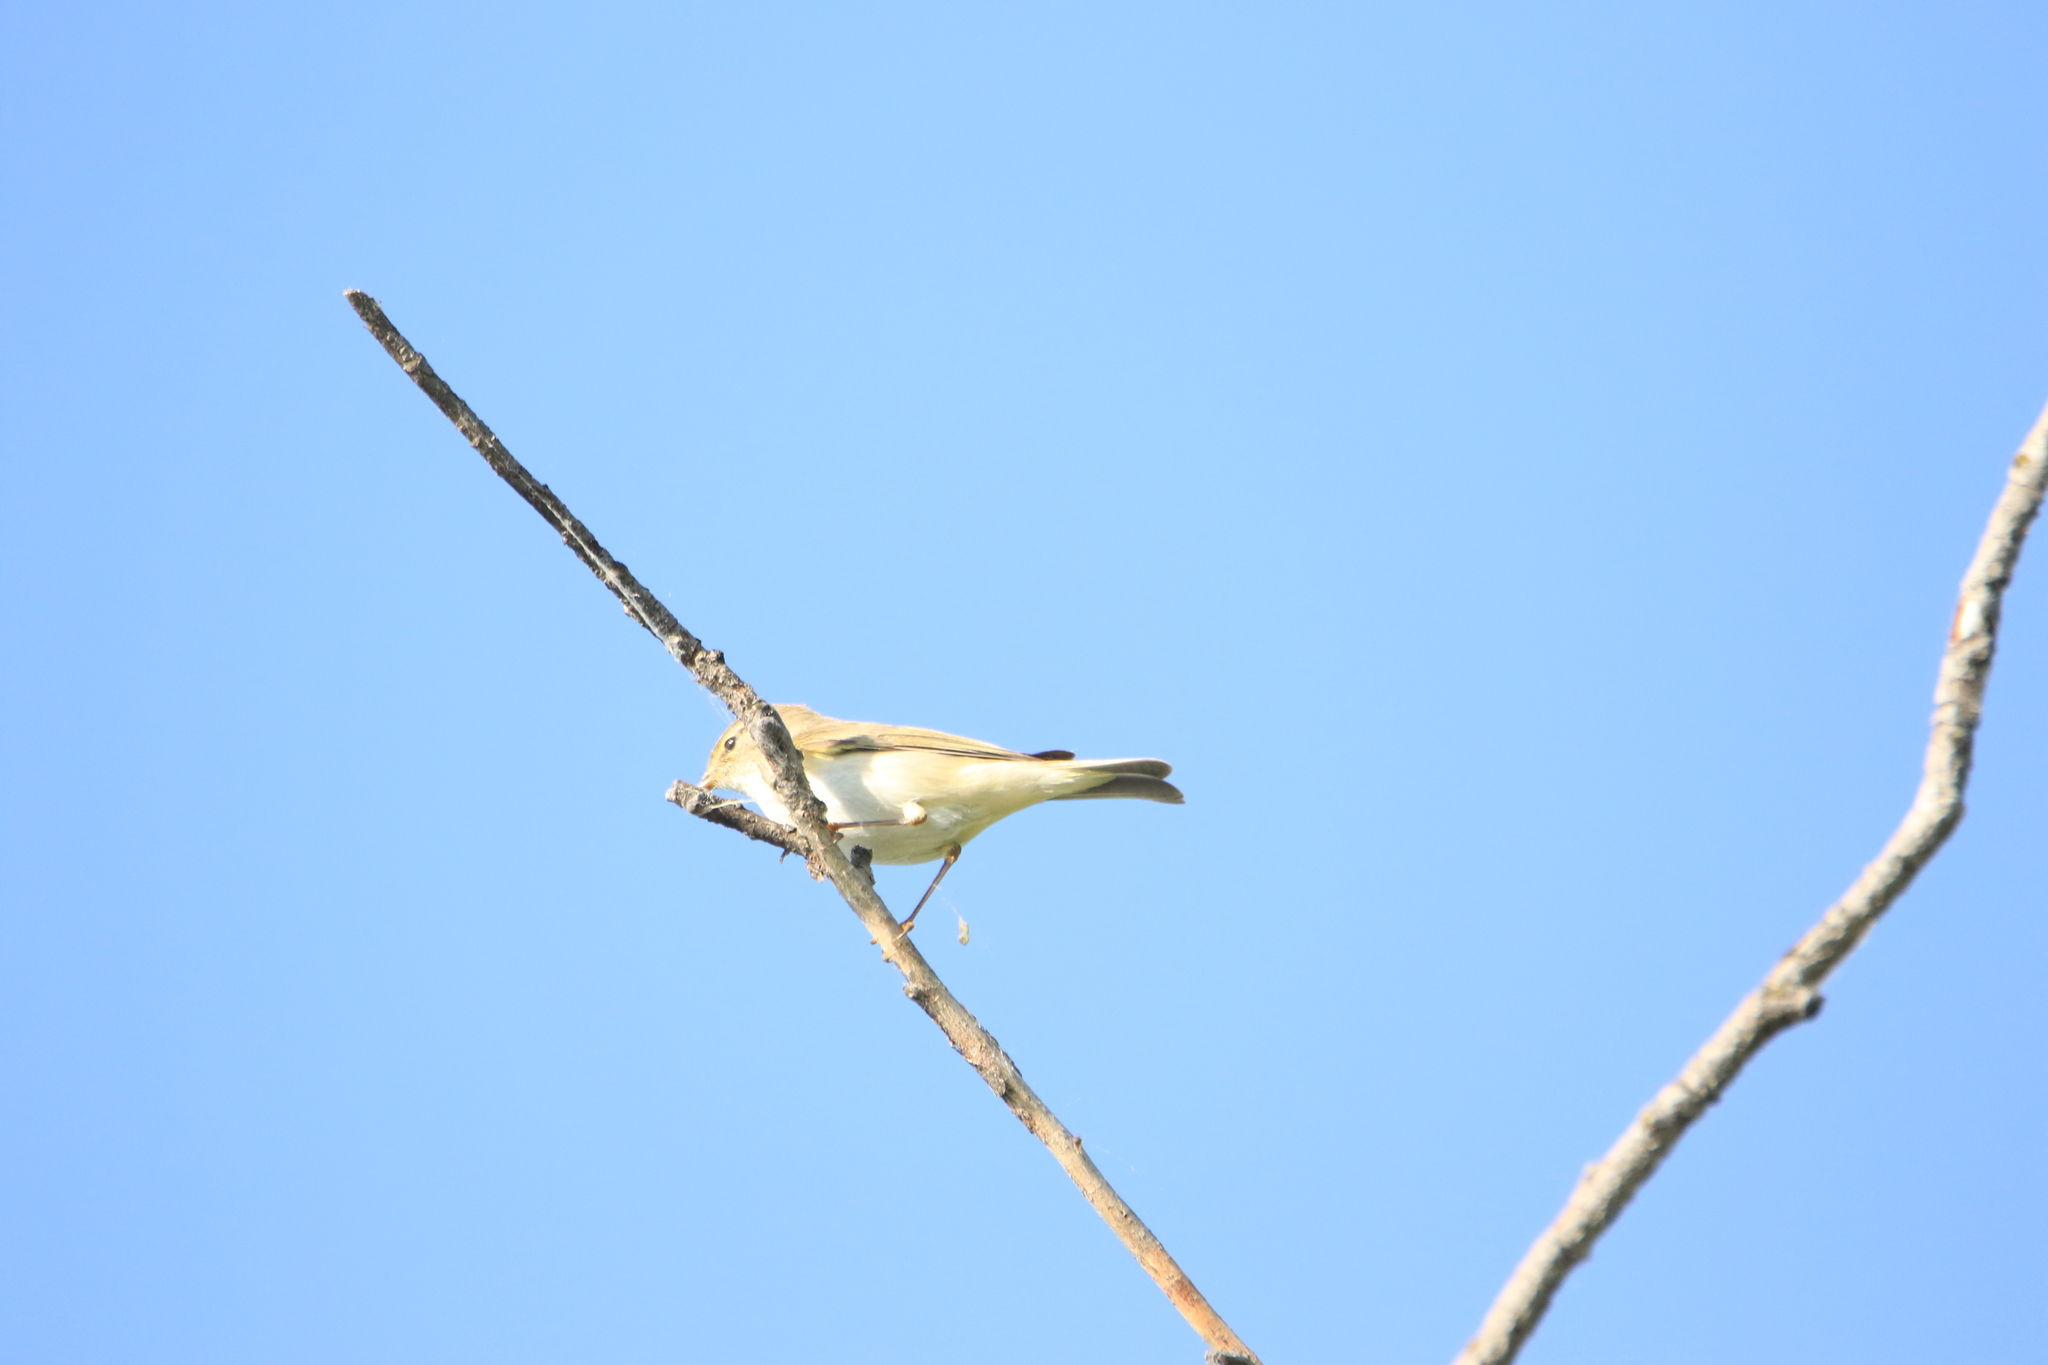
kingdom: Animalia
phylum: Chordata
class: Aves
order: Passeriformes
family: Phylloscopidae
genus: Phylloscopus
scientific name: Phylloscopus trochilus
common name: Willow warbler
